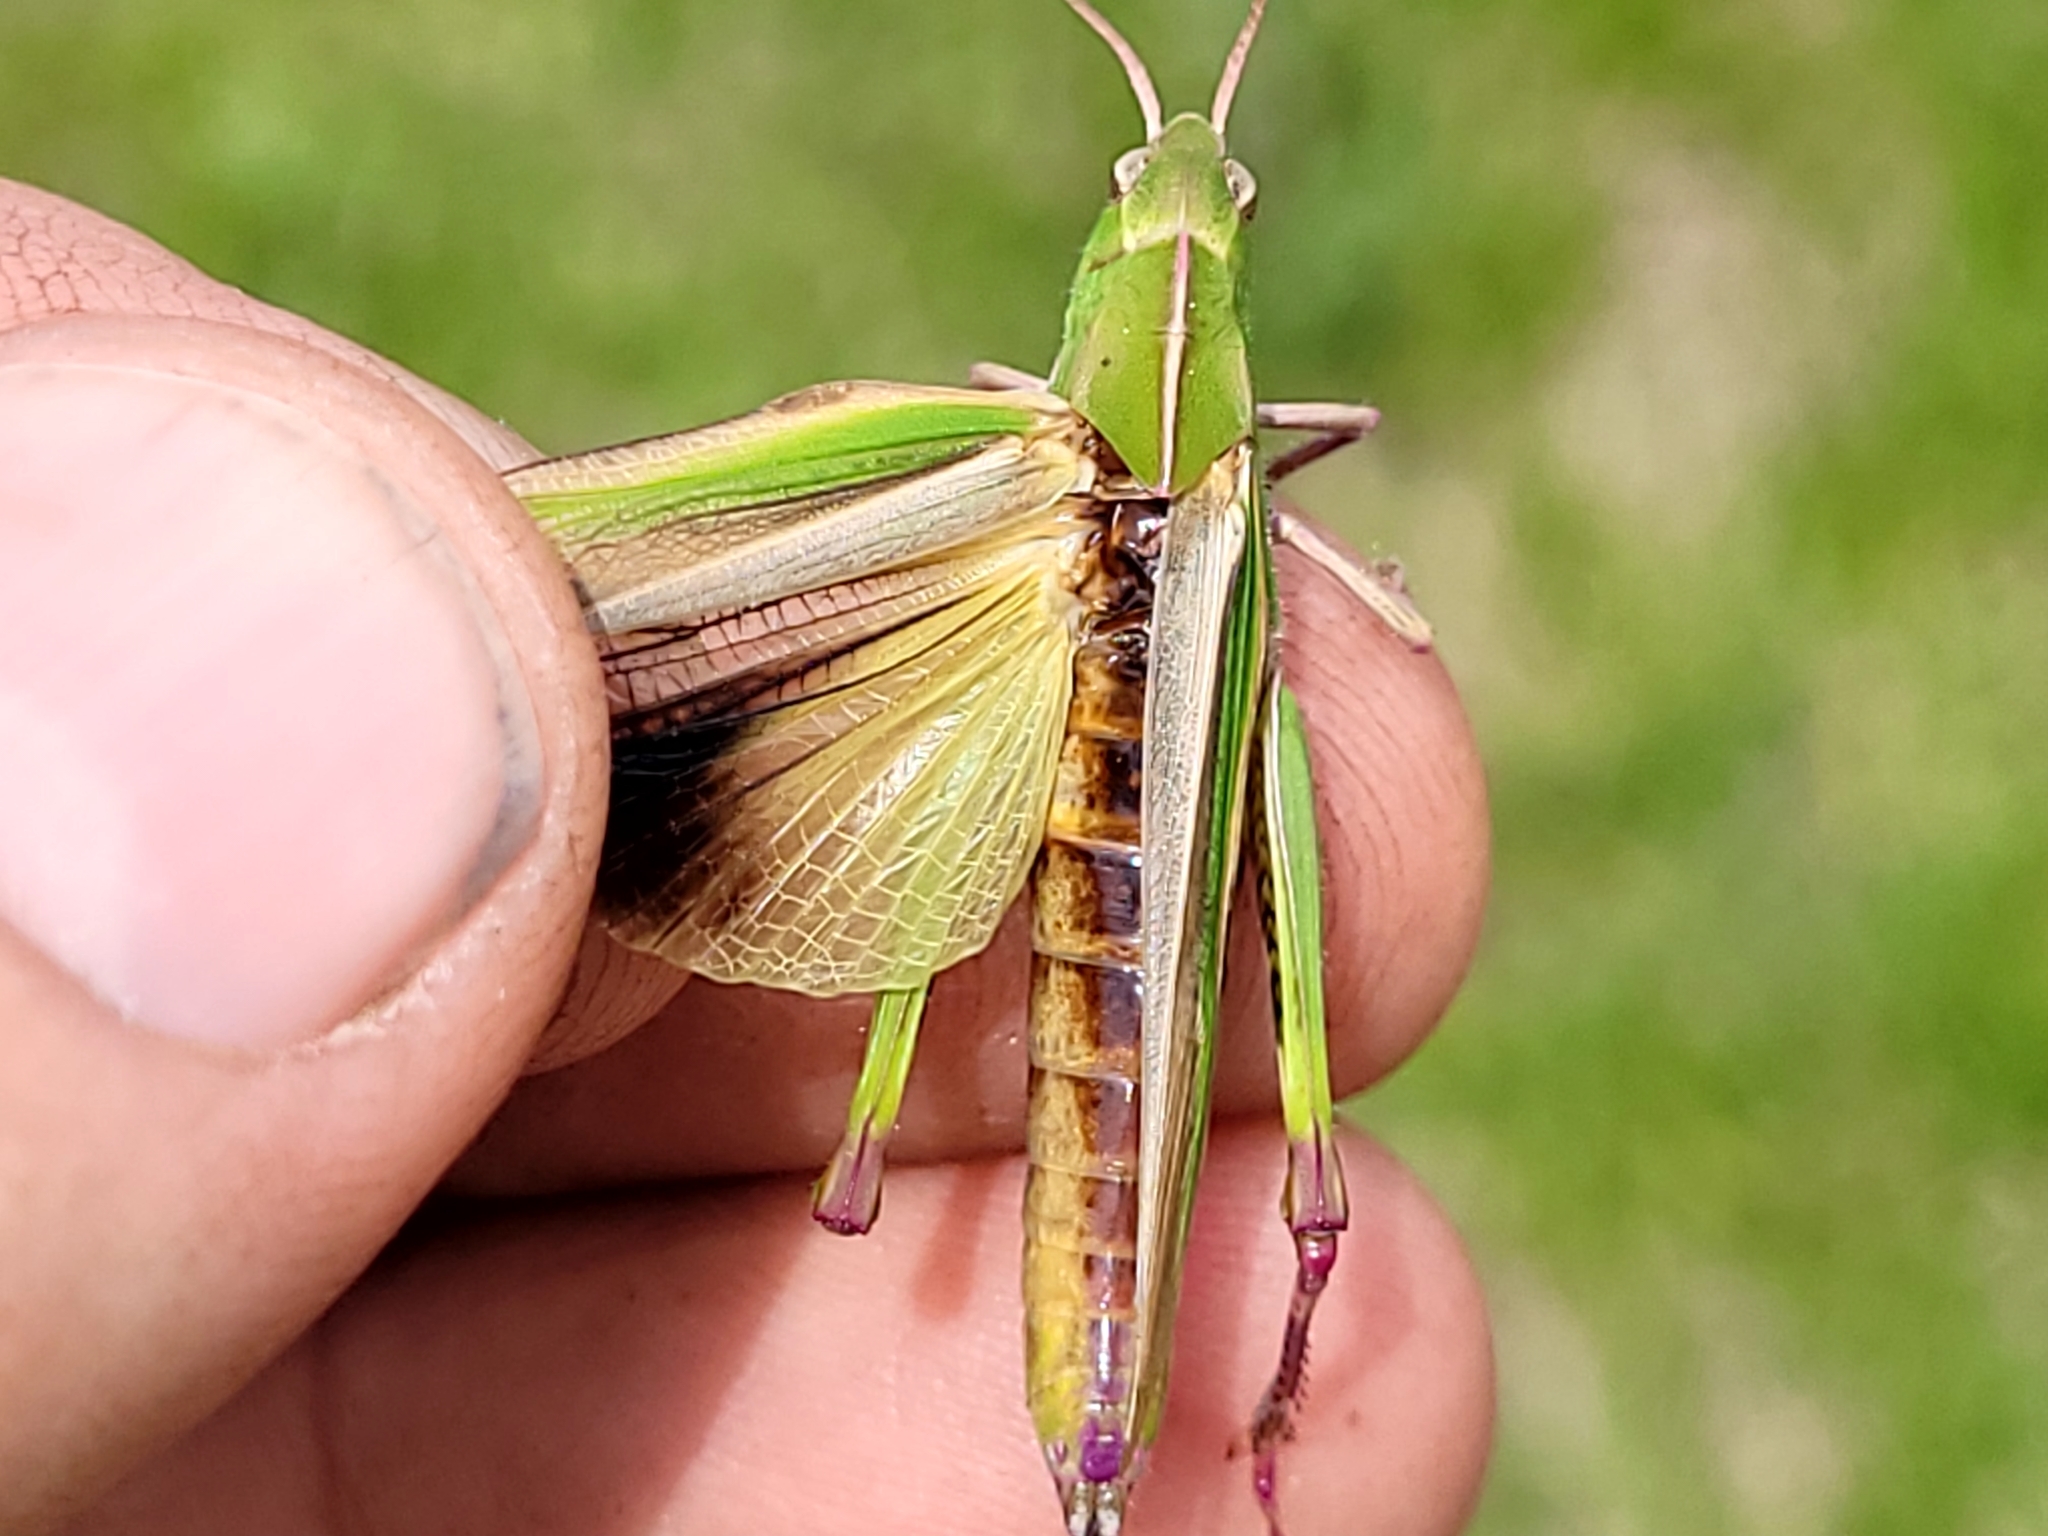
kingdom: Animalia
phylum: Arthropoda
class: Insecta
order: Orthoptera
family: Acrididae
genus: Chortophaga
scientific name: Chortophaga viridifasciata
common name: Green-striped grasshopper
